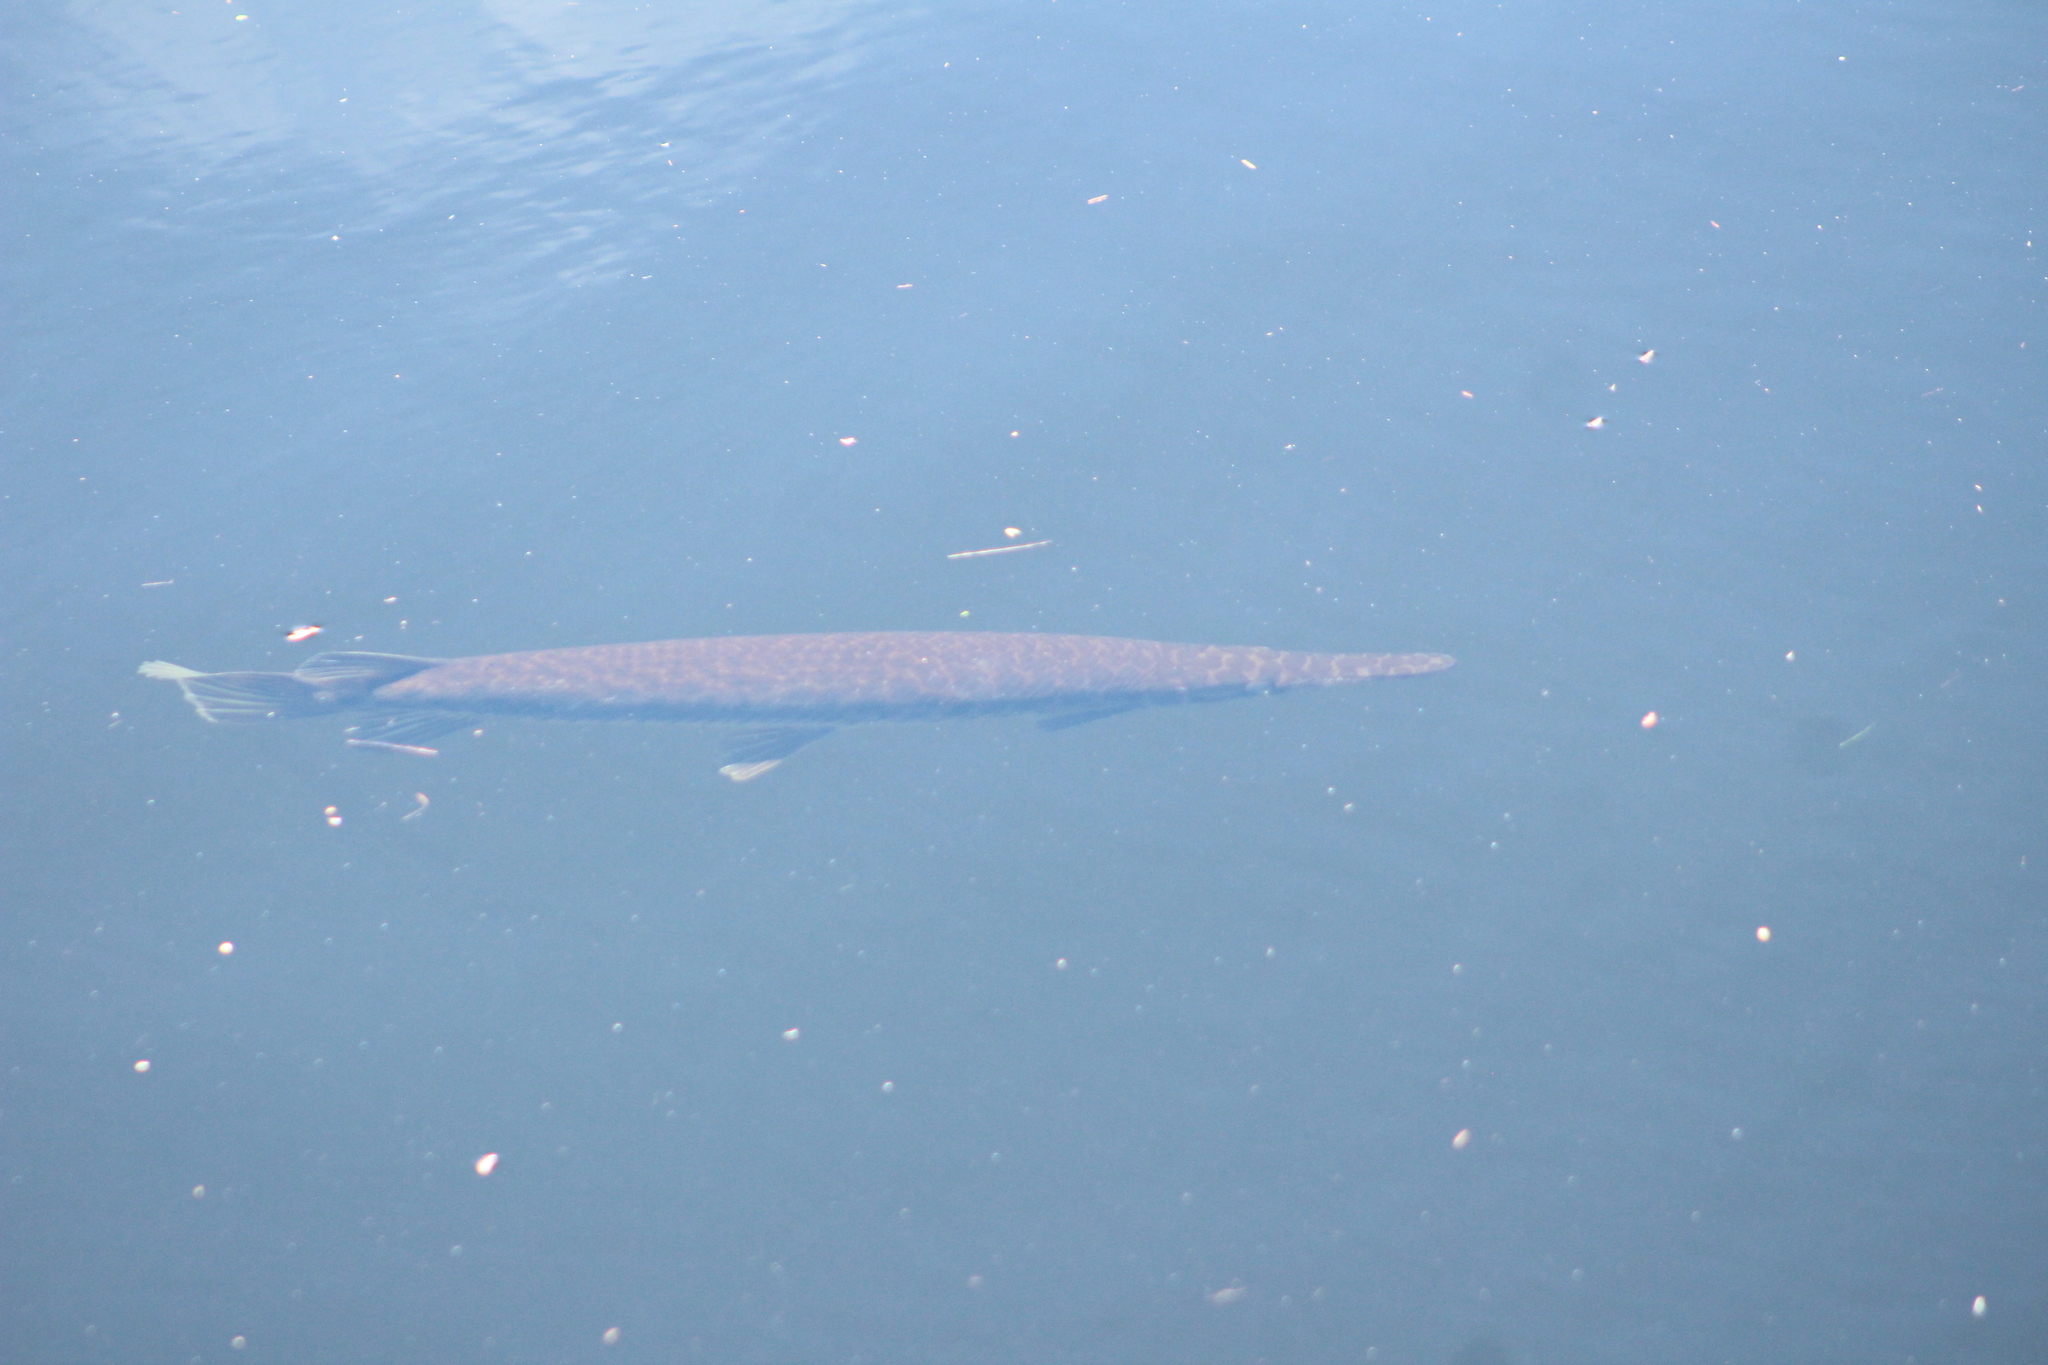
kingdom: Animalia
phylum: Chordata
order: Lepisosteiformes
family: Lepisosteidae
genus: Lepisosteus
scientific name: Lepisosteus platyrhincus
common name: Florida gar
